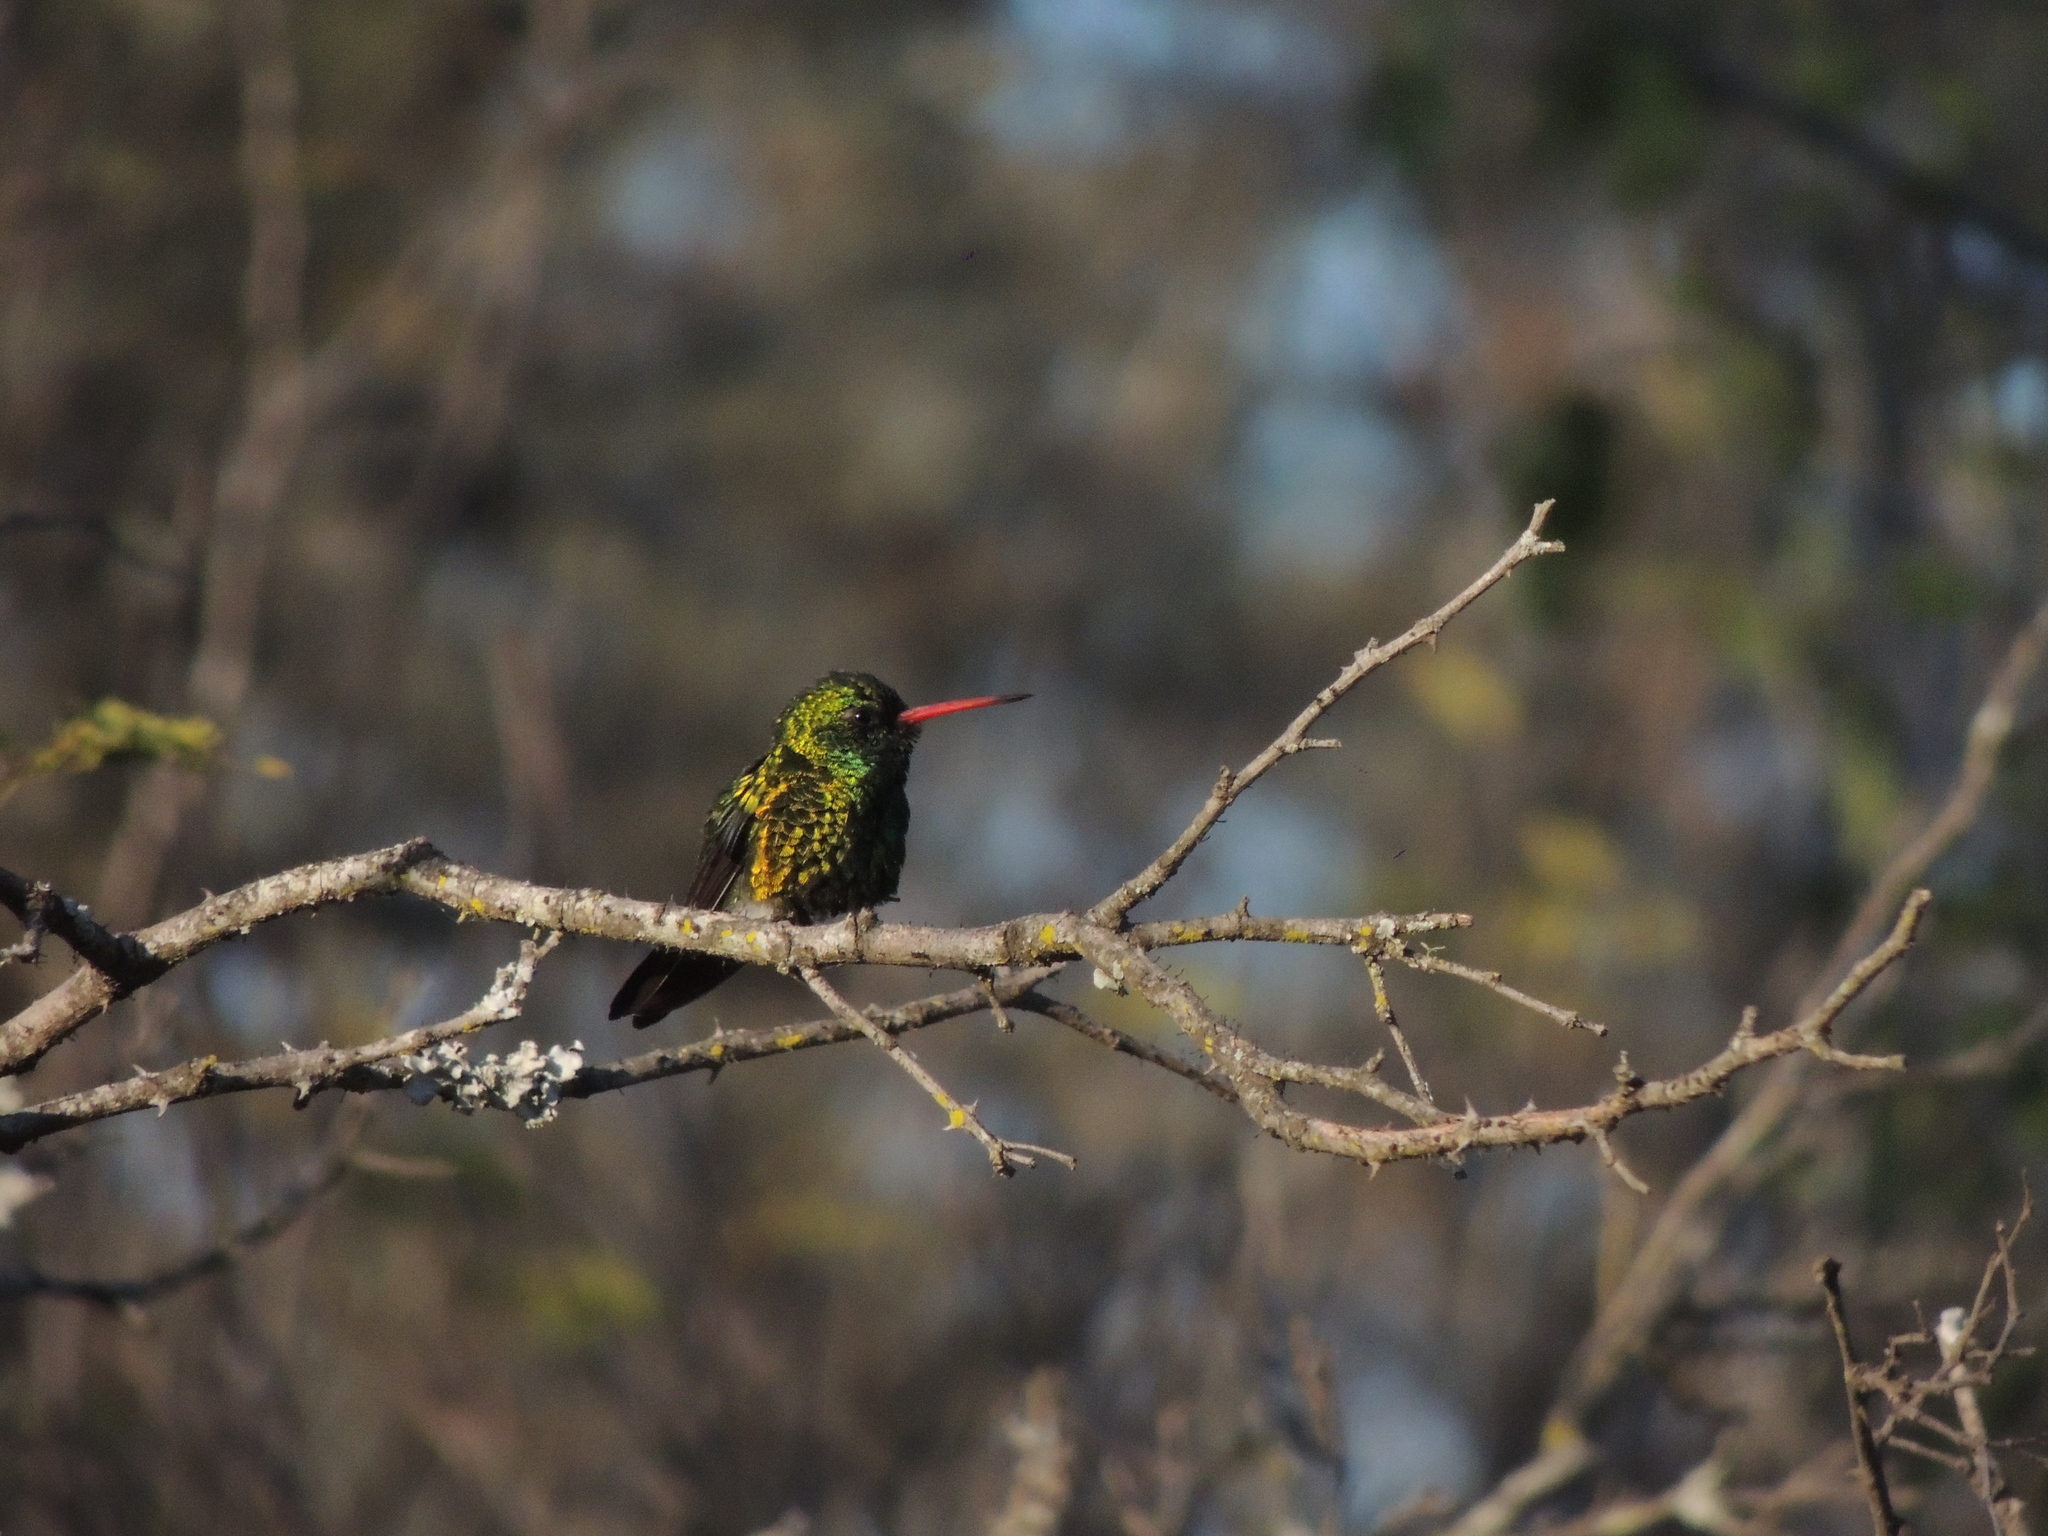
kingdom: Animalia
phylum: Chordata
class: Aves
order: Apodiformes
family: Trochilidae
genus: Chlorostilbon
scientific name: Chlorostilbon lucidus
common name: Glittering-bellied emerald
